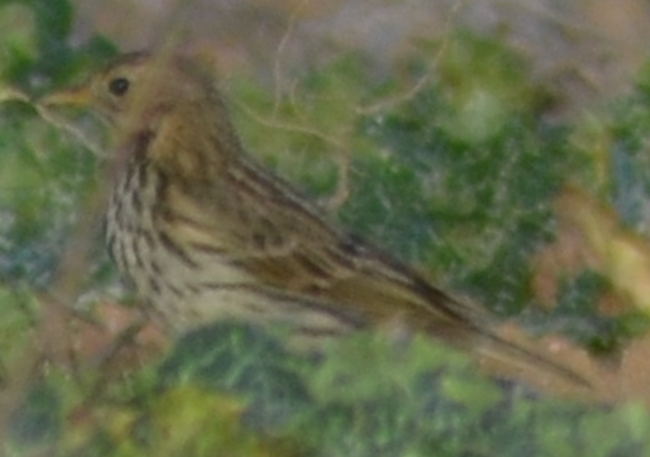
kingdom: Animalia
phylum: Chordata
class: Aves
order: Passeriformes
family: Motacillidae
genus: Anthus
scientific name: Anthus pratensis
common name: Meadow pipit
